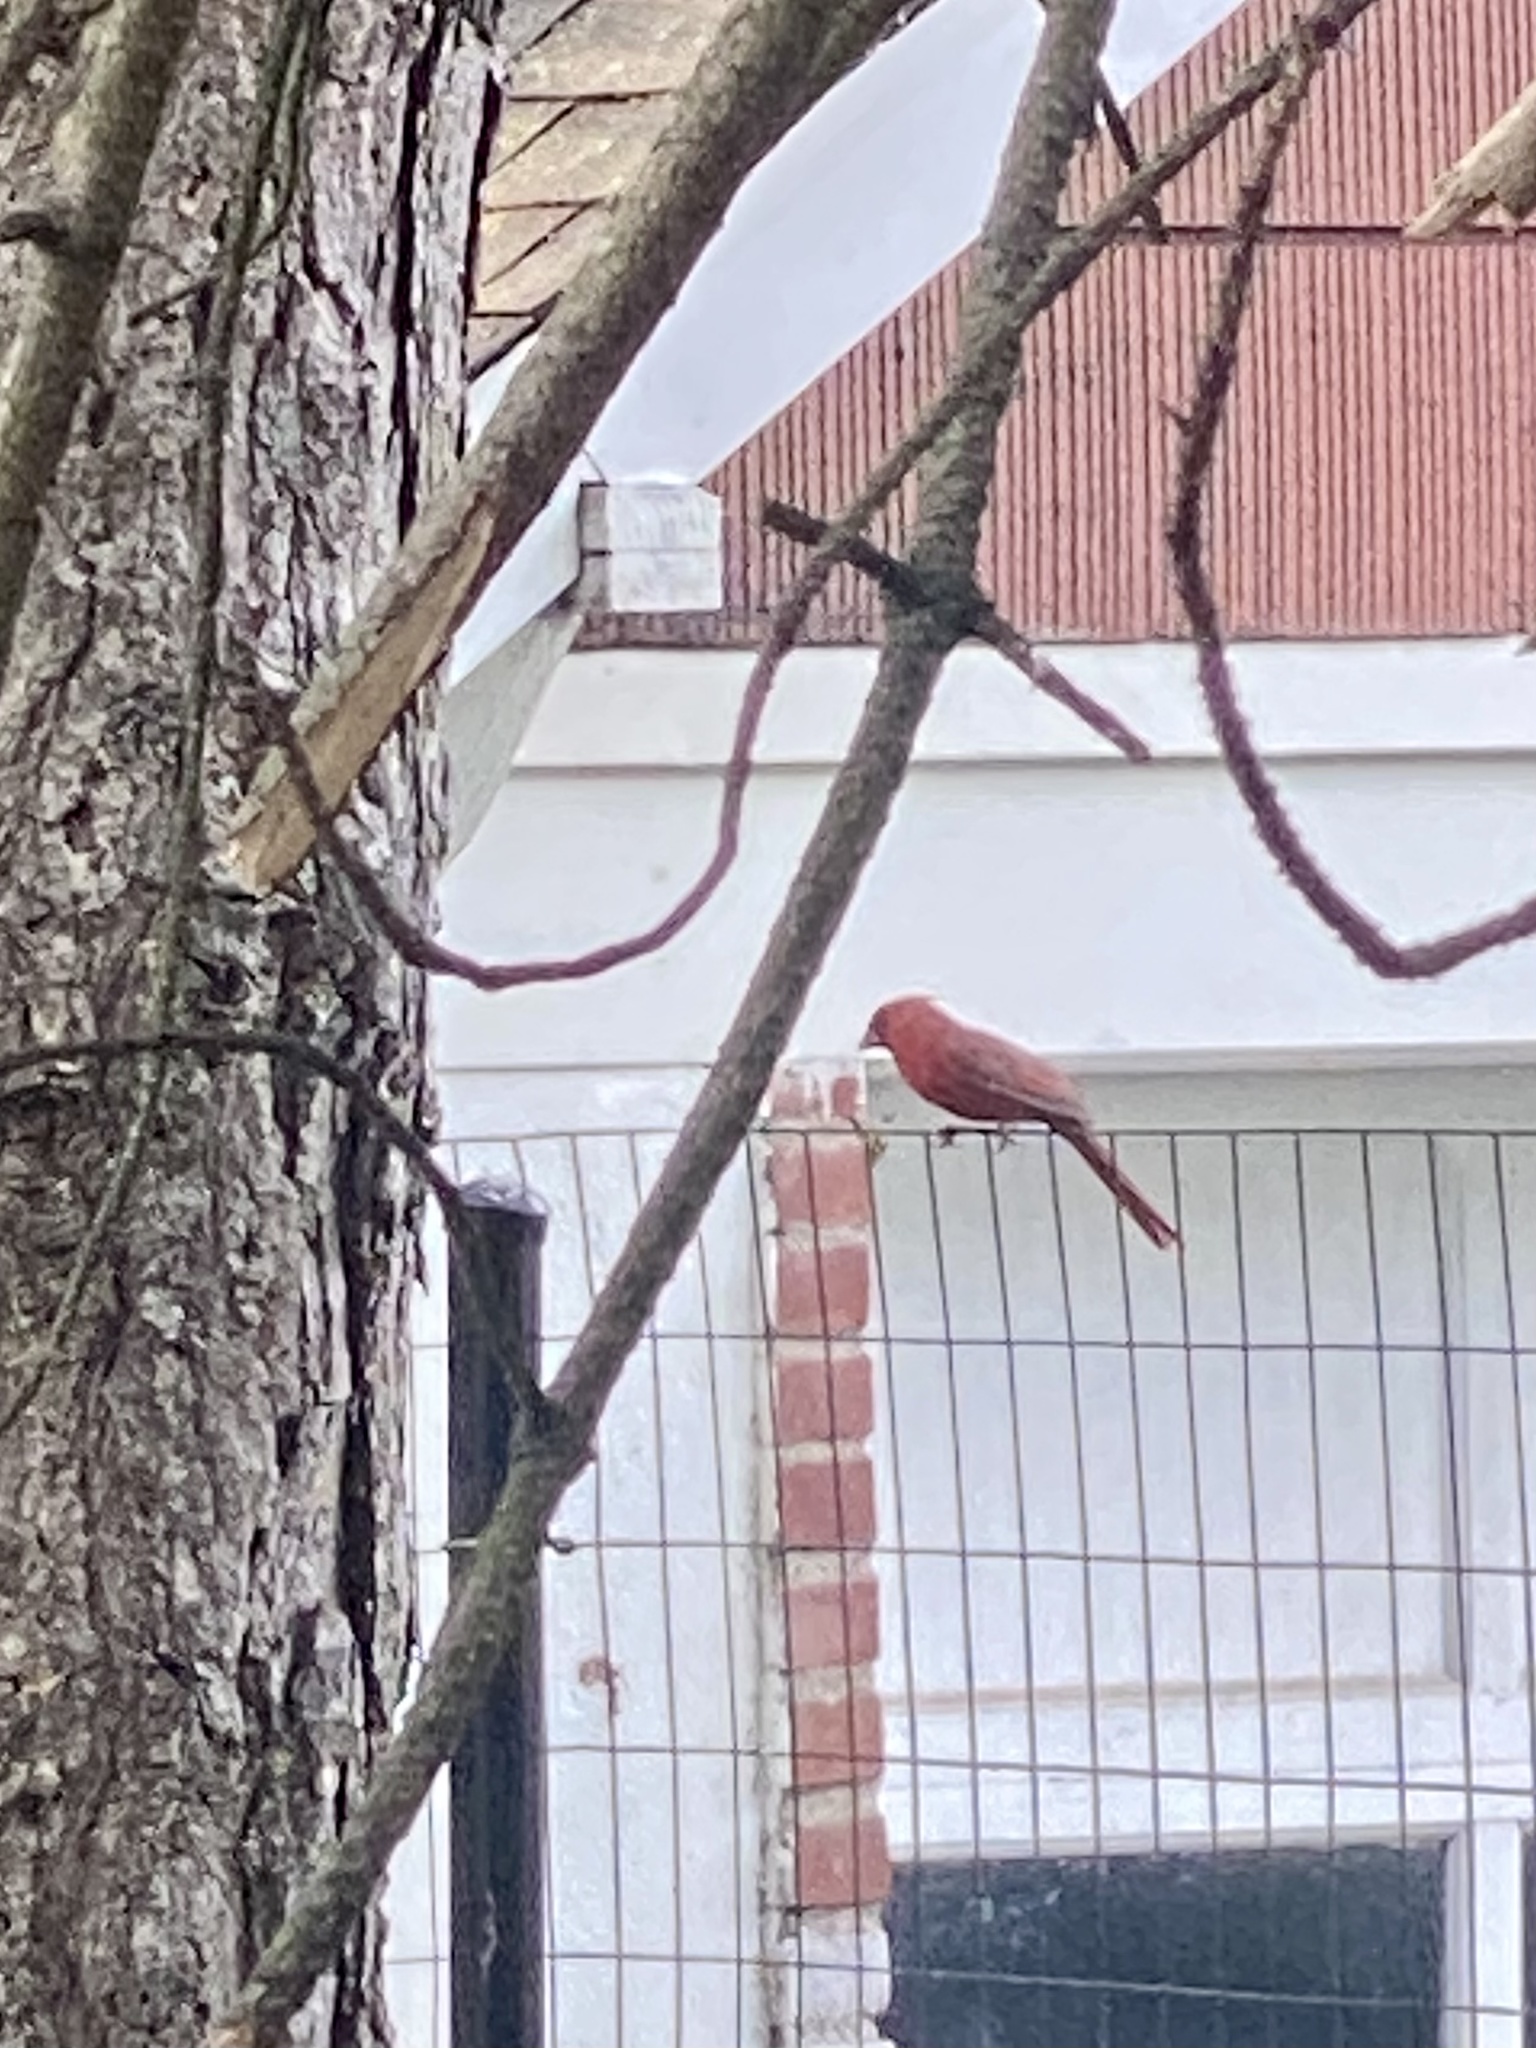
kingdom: Animalia
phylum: Chordata
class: Aves
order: Passeriformes
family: Cardinalidae
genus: Cardinalis
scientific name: Cardinalis cardinalis
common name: Northern cardinal
